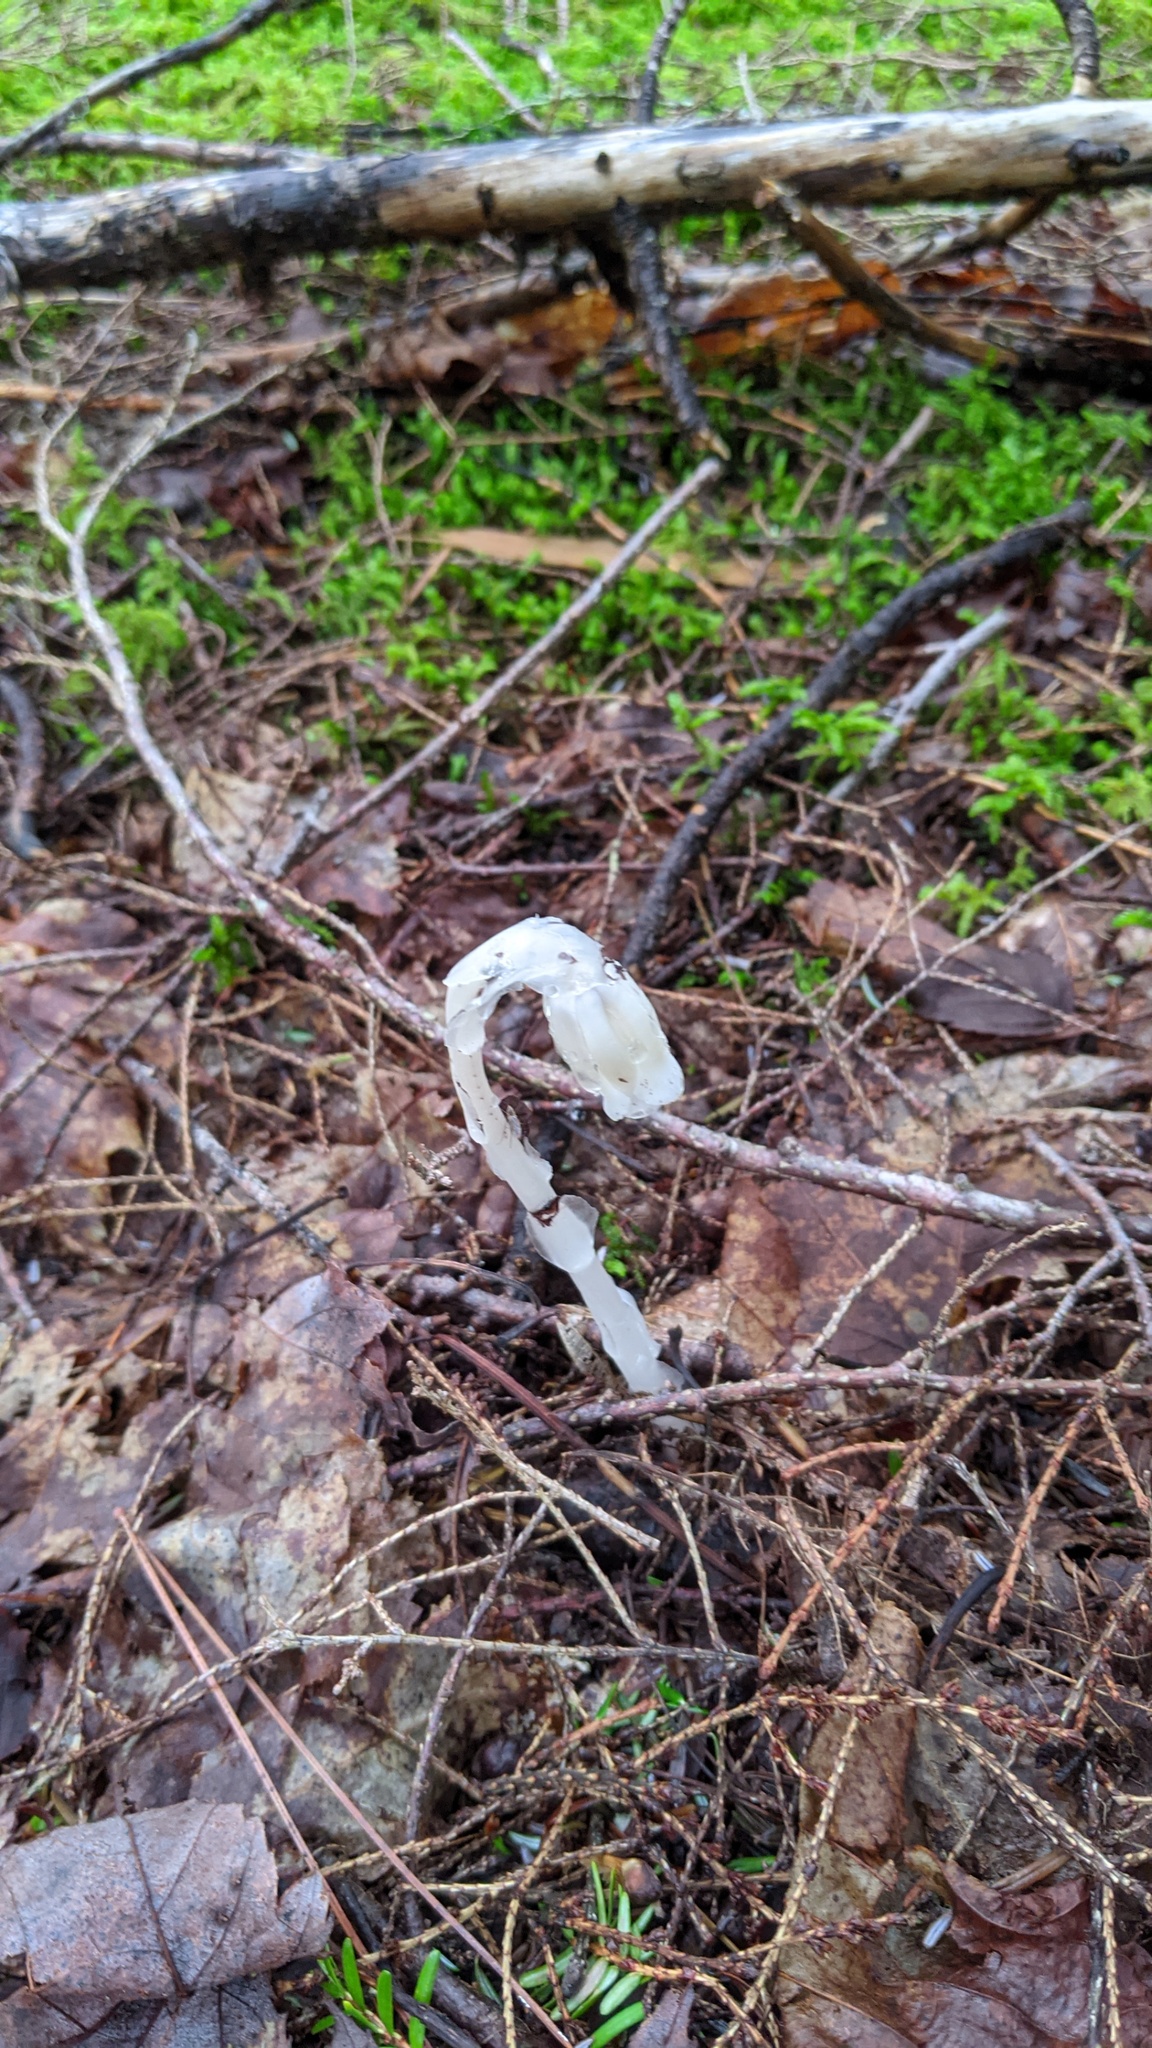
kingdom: Plantae
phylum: Tracheophyta
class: Magnoliopsida
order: Ericales
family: Ericaceae
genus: Monotropa
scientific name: Monotropa uniflora
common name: Convulsion root
